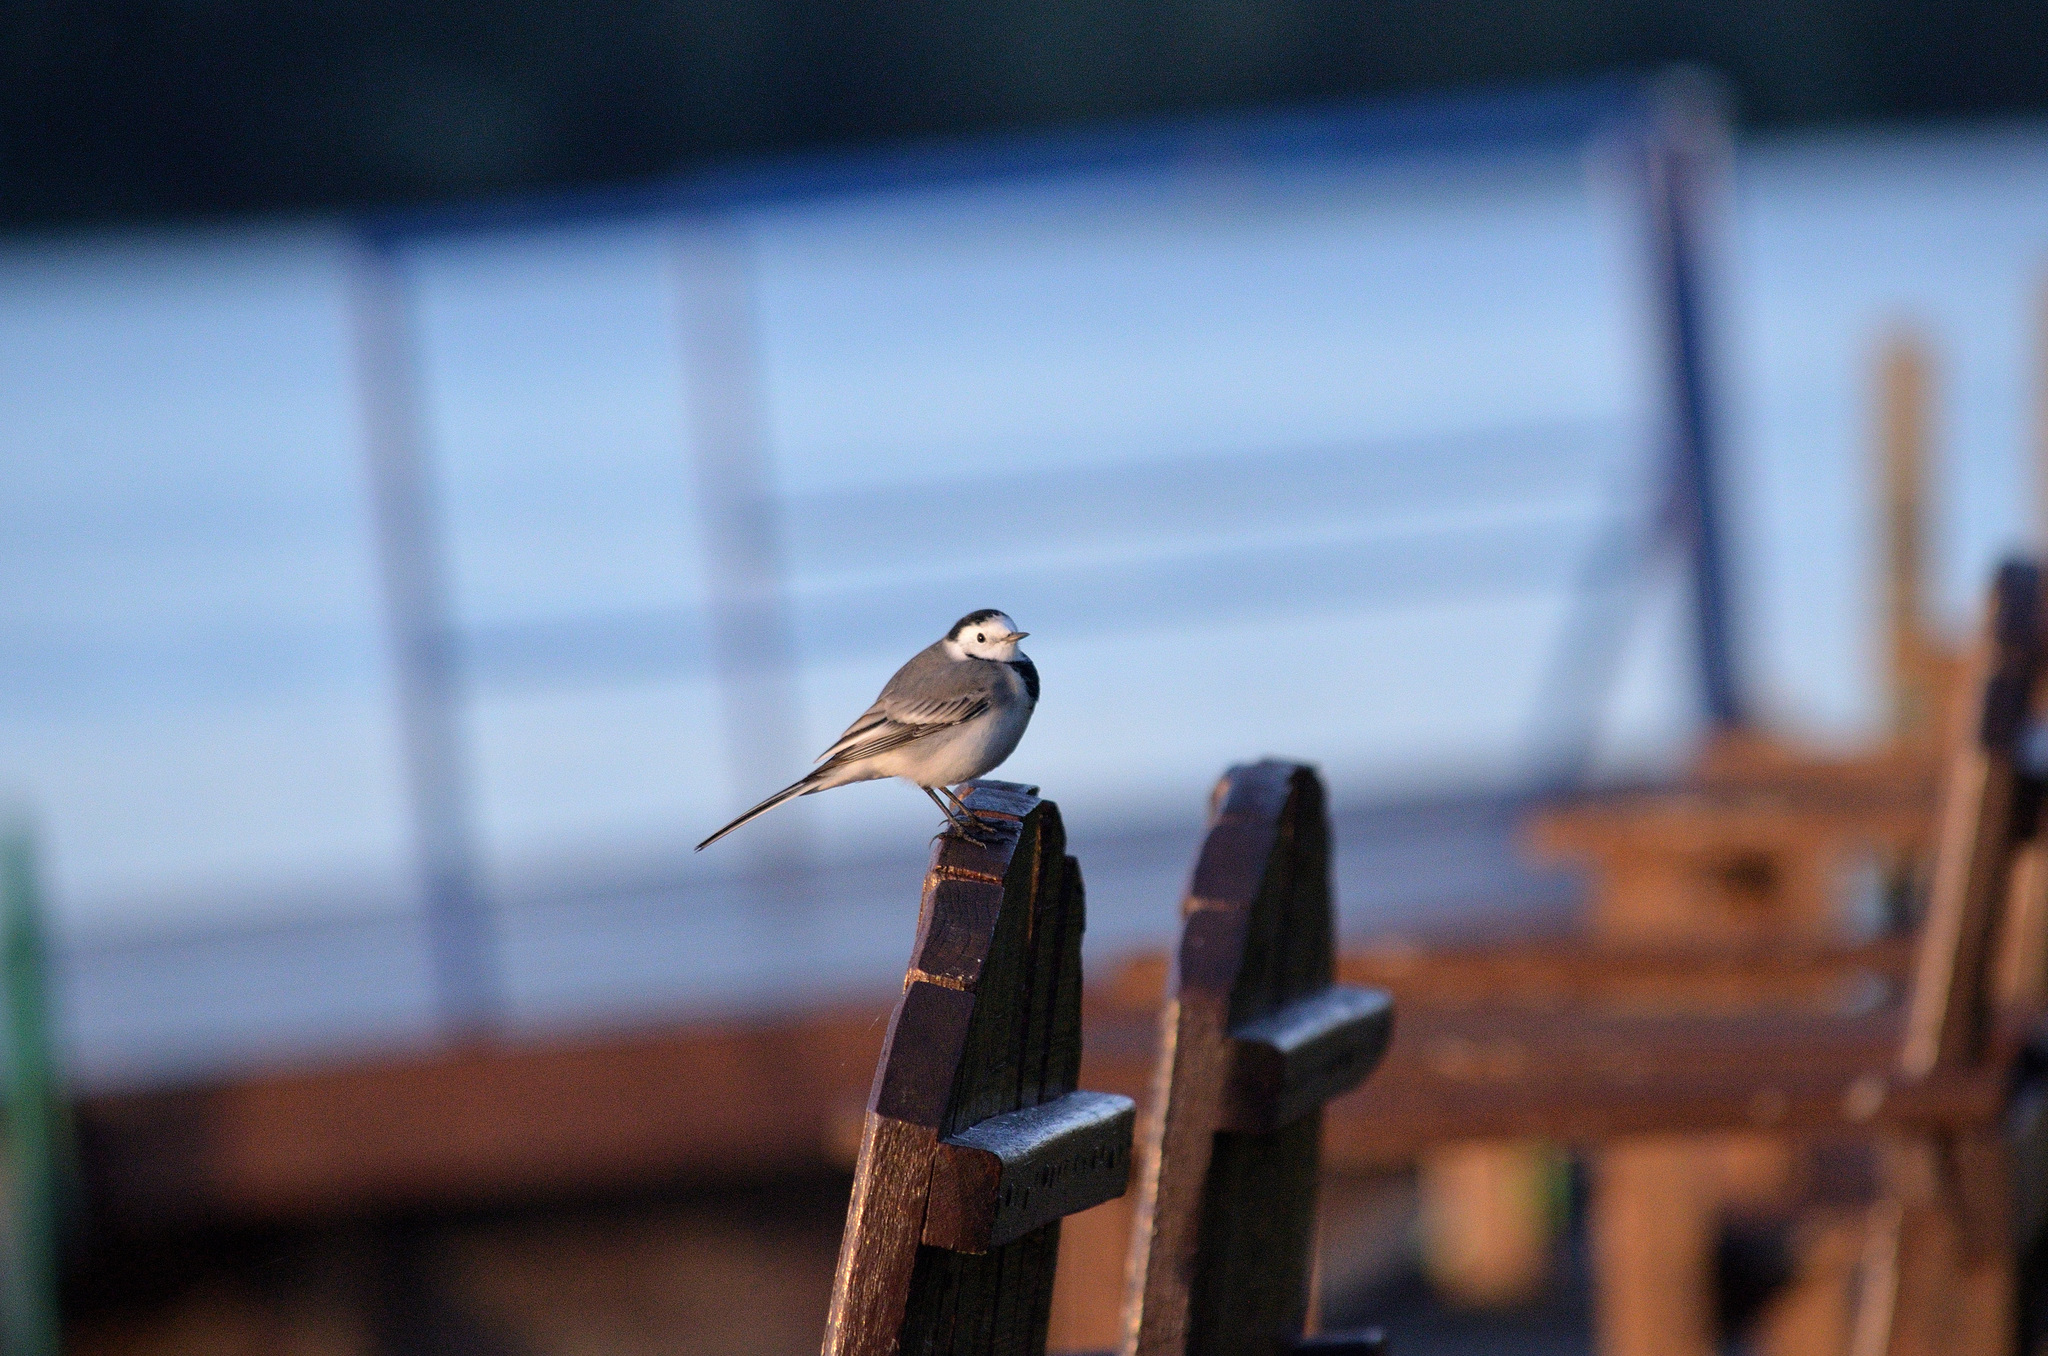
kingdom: Animalia
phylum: Chordata
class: Aves
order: Passeriformes
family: Motacillidae
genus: Motacilla
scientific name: Motacilla alba
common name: White wagtail
